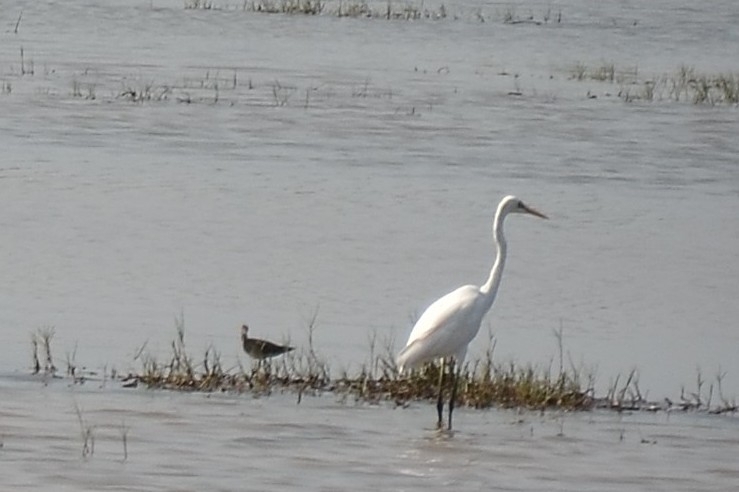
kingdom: Animalia
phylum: Chordata
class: Aves
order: Pelecaniformes
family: Ardeidae
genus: Ardea
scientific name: Ardea alba
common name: Great egret
